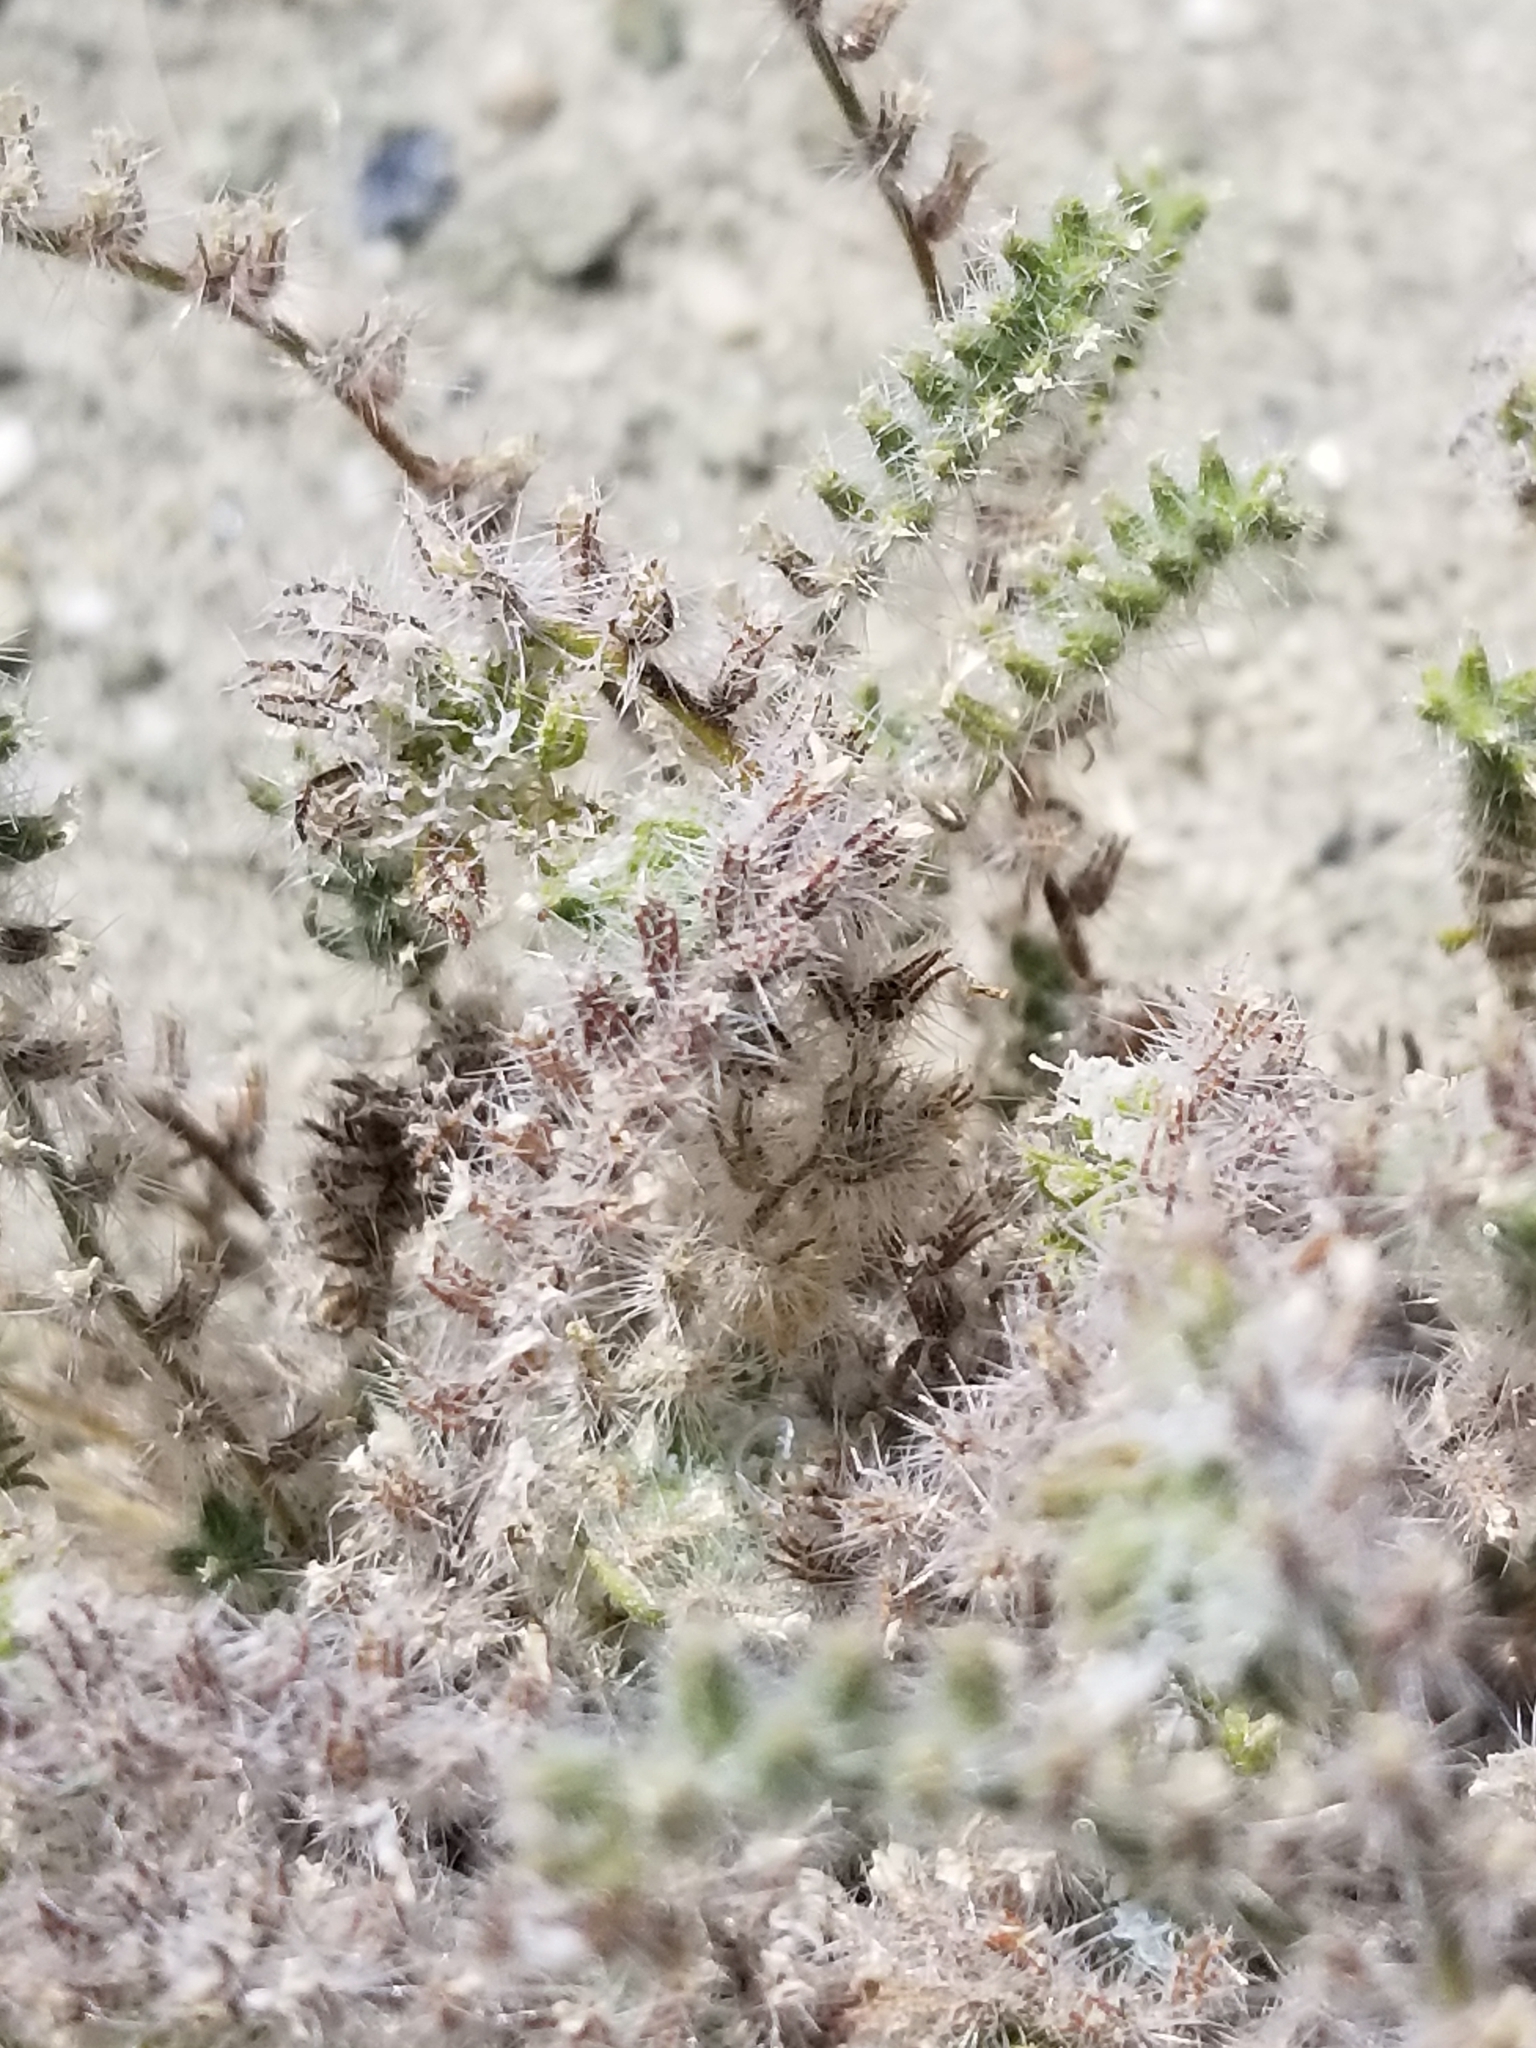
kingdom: Plantae
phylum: Tracheophyta
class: Magnoliopsida
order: Boraginales
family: Boraginaceae
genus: Johnstonella
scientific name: Johnstonella angustifolia
